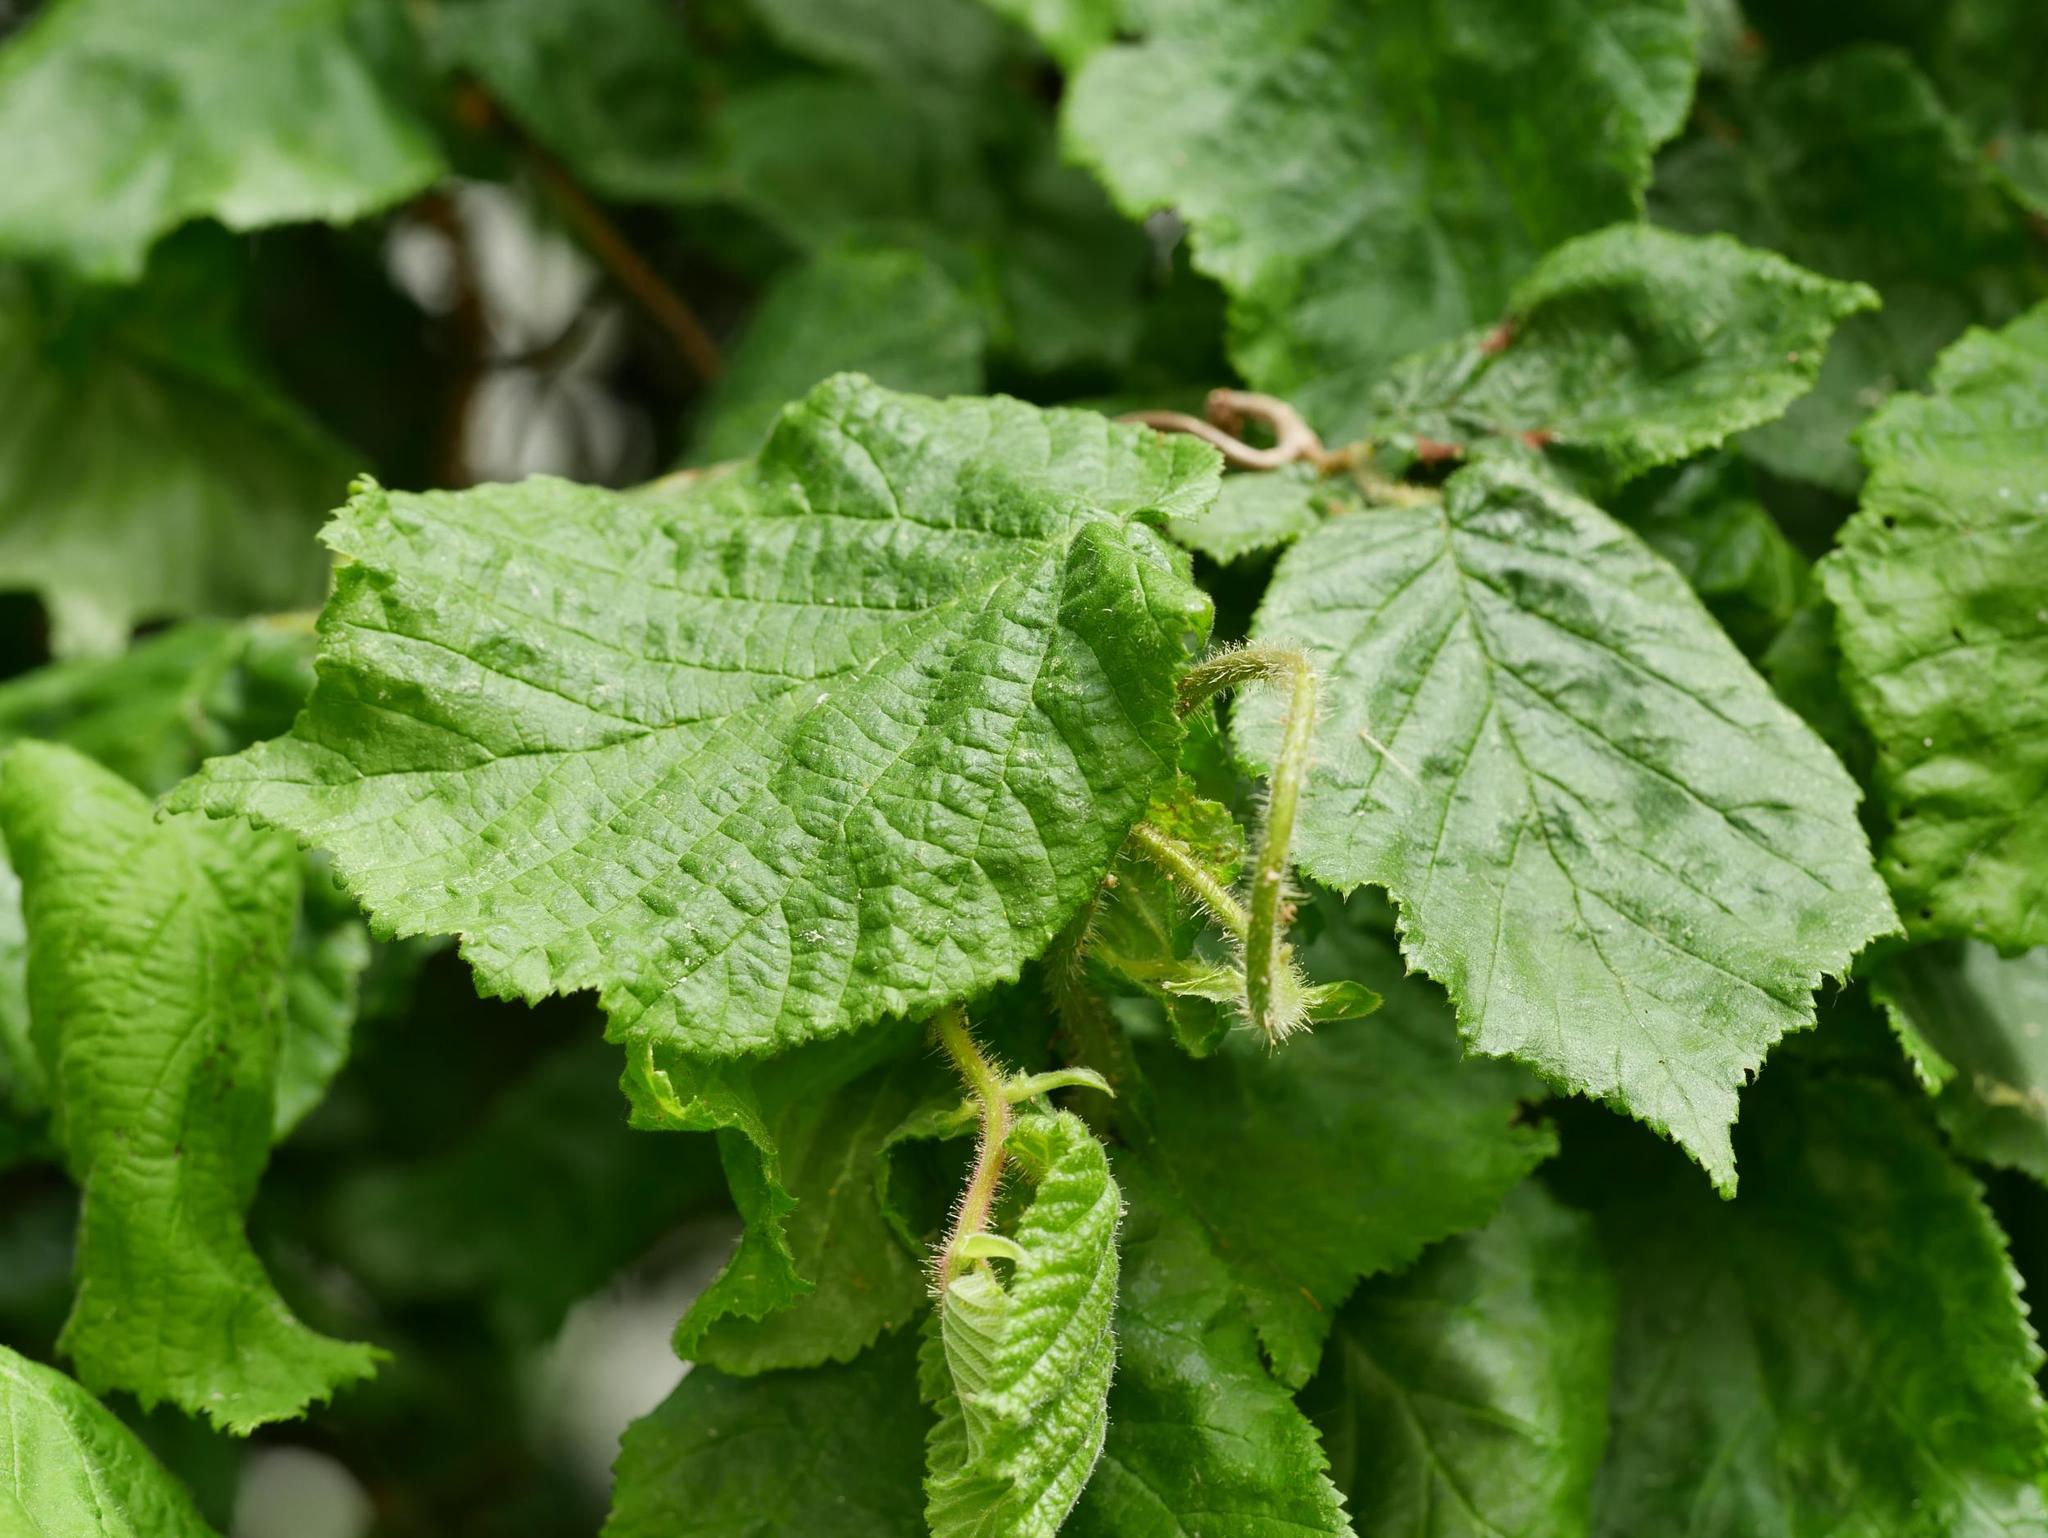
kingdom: Plantae
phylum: Tracheophyta
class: Magnoliopsida
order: Fagales
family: Betulaceae
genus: Corylus
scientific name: Corylus avellana
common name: European hazel
